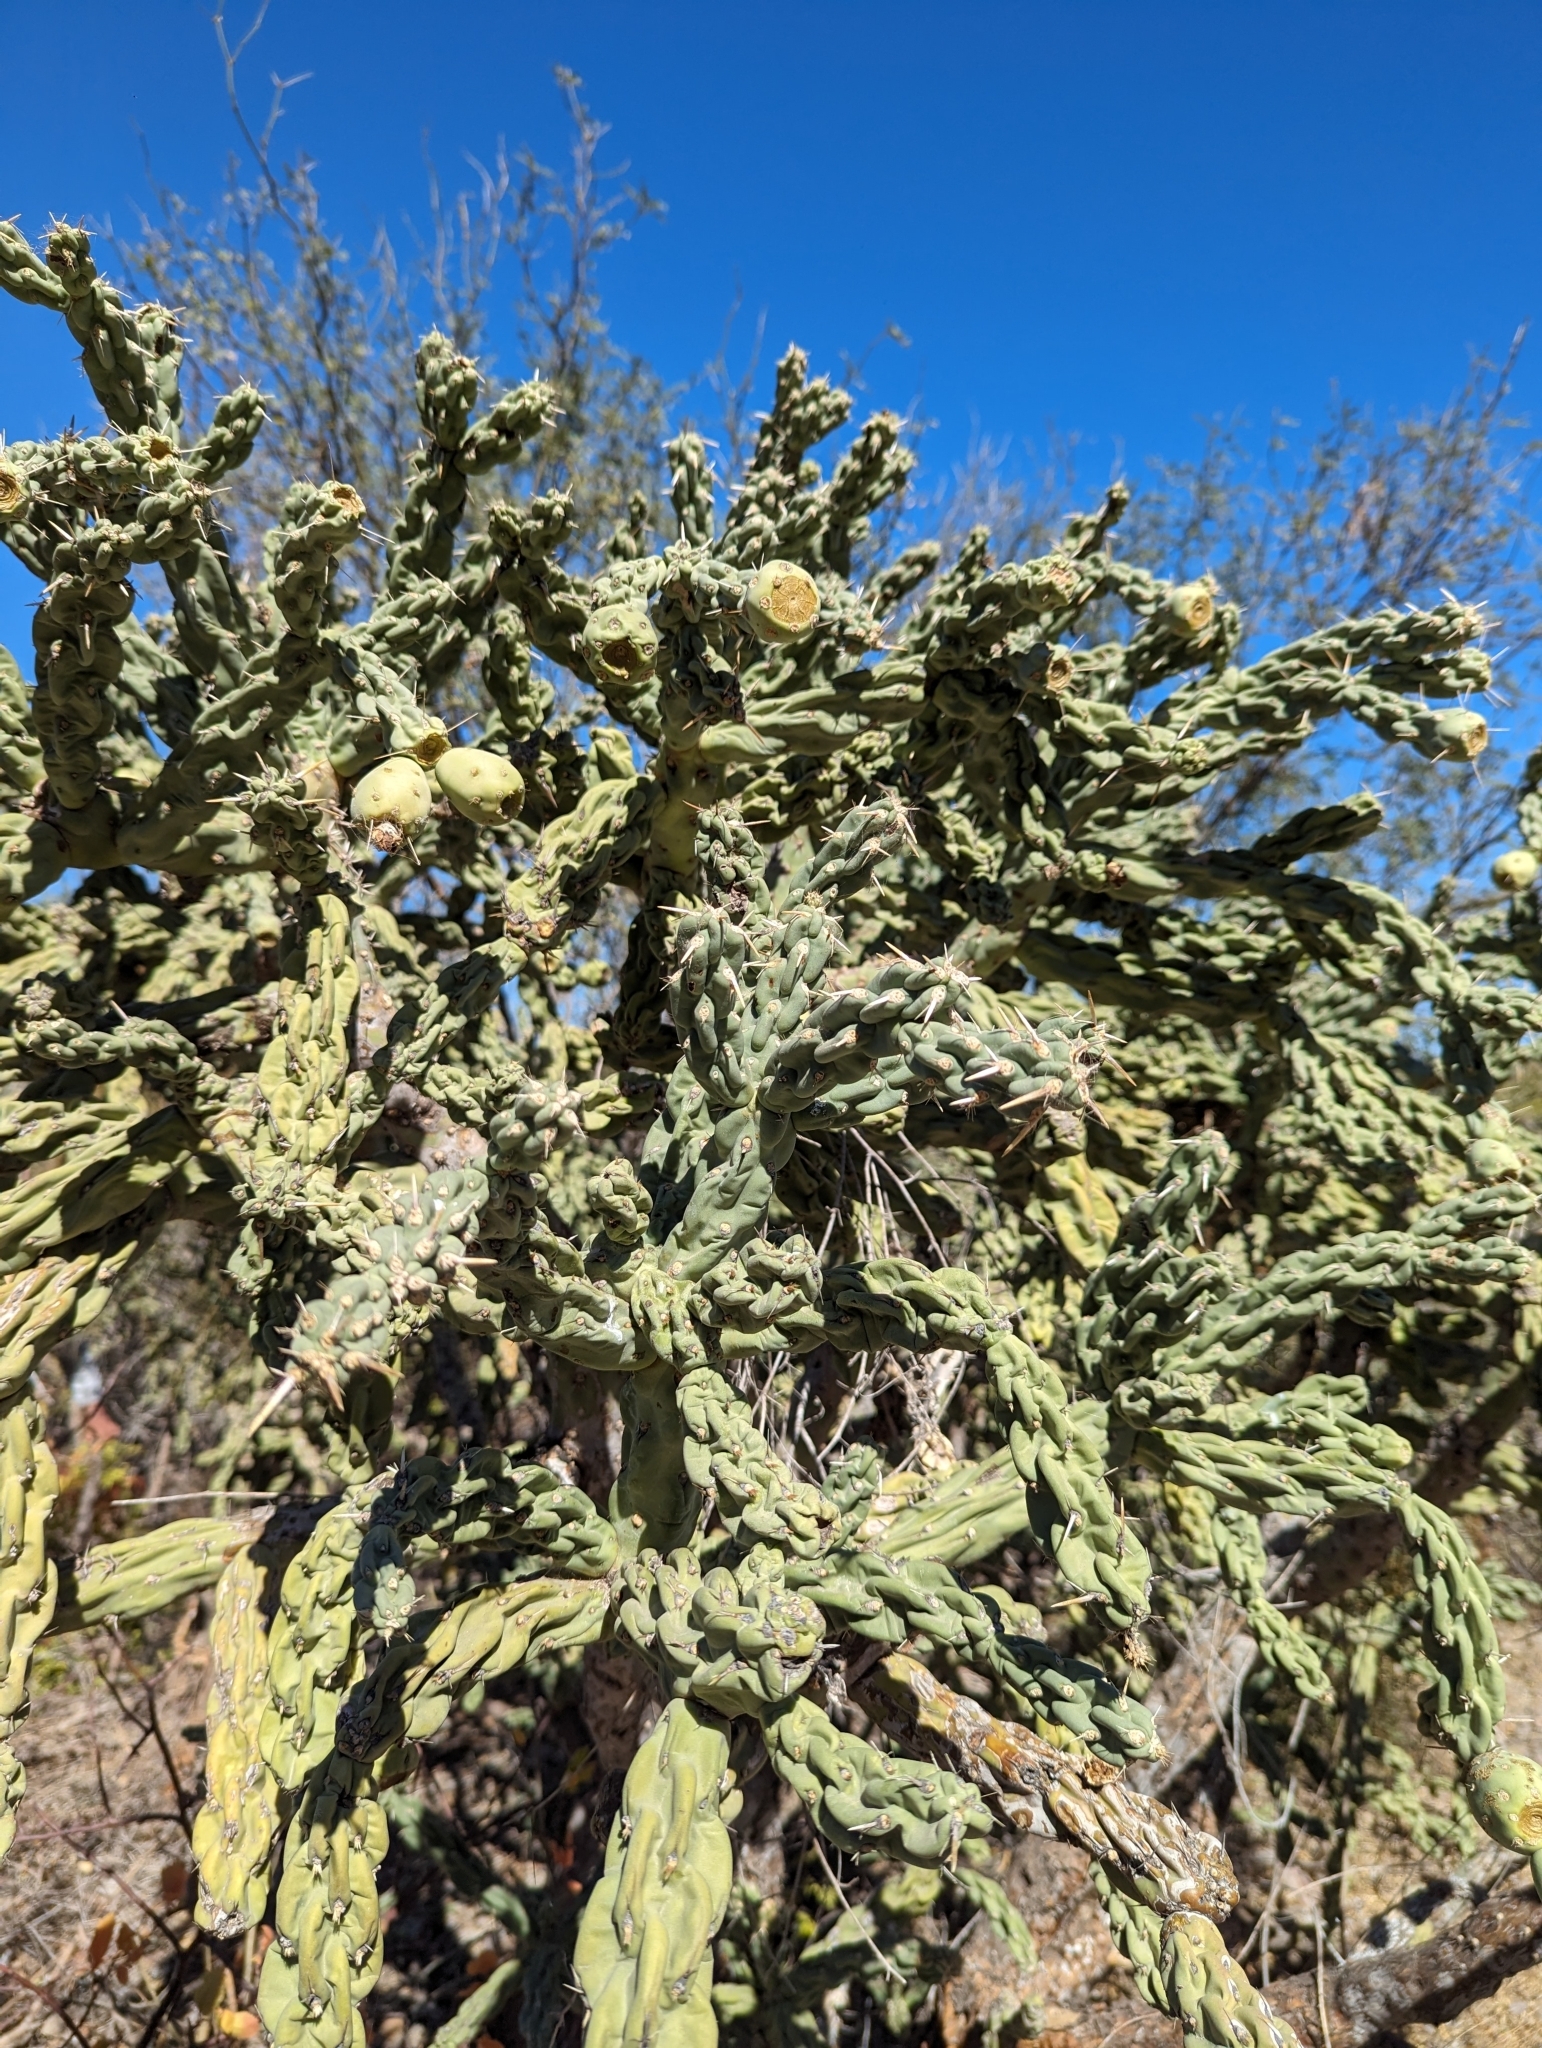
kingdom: Plantae
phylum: Tracheophyta
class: Magnoliopsida
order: Caryophyllales
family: Cactaceae
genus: Cylindropuntia
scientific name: Cylindropuntia cholla
